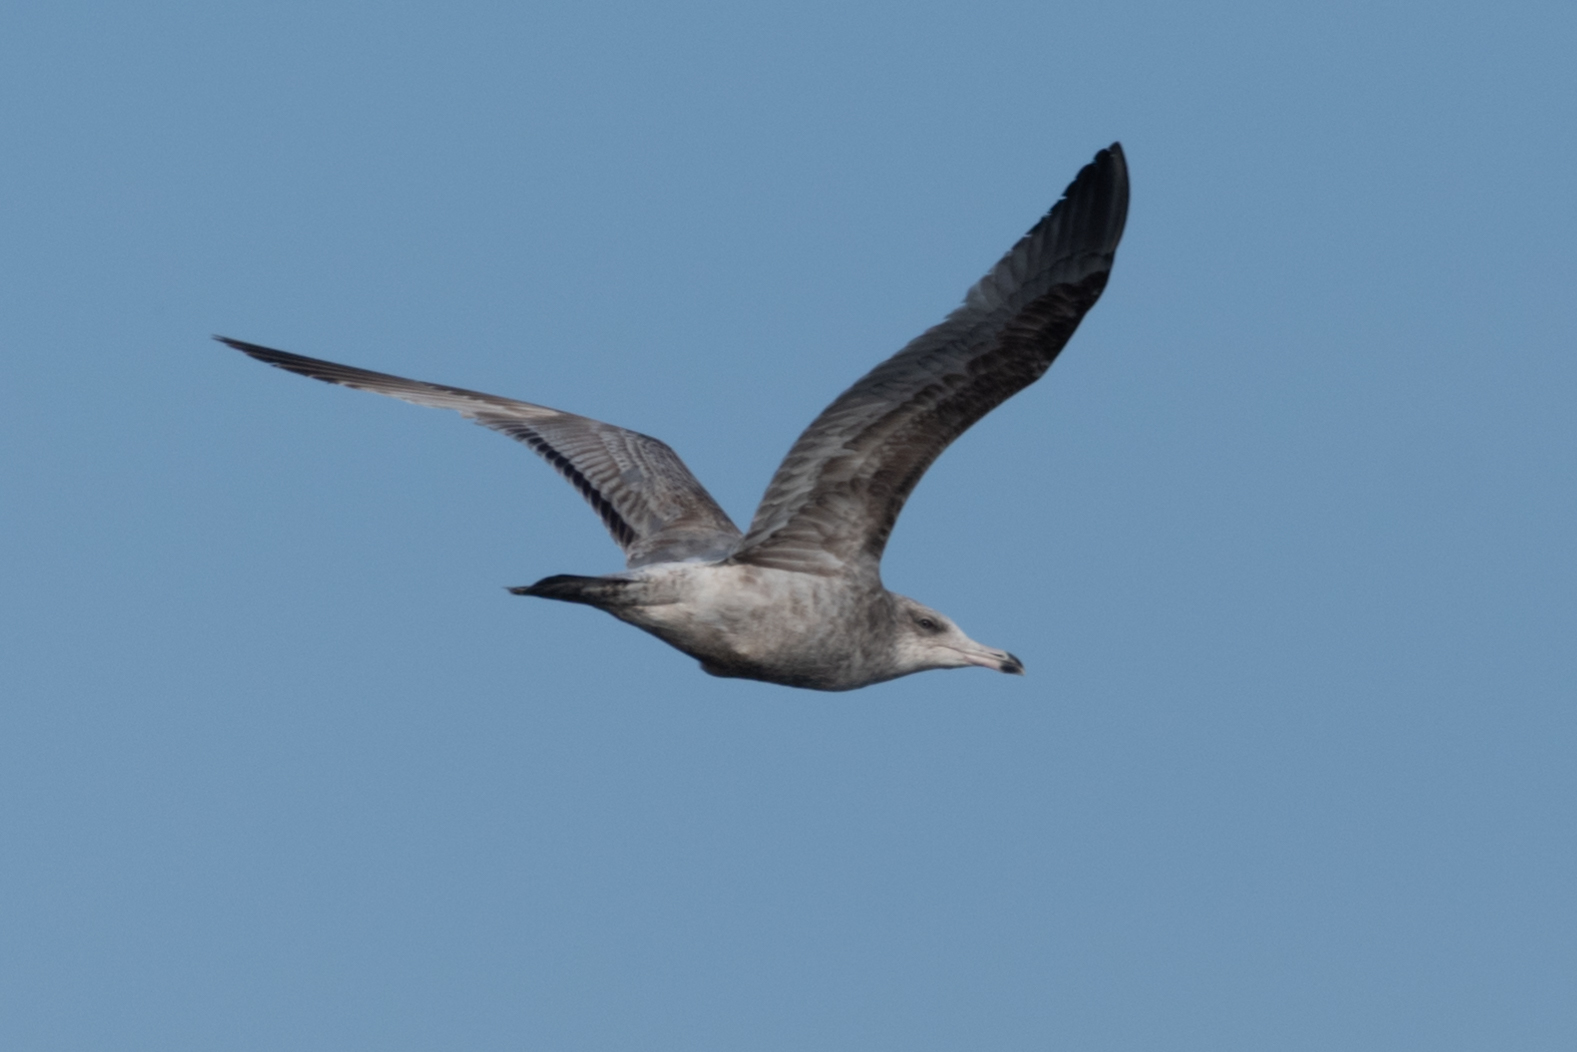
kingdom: Animalia
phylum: Chordata
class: Aves
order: Charadriiformes
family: Laridae
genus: Larus
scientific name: Larus argentatus
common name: Herring gull
